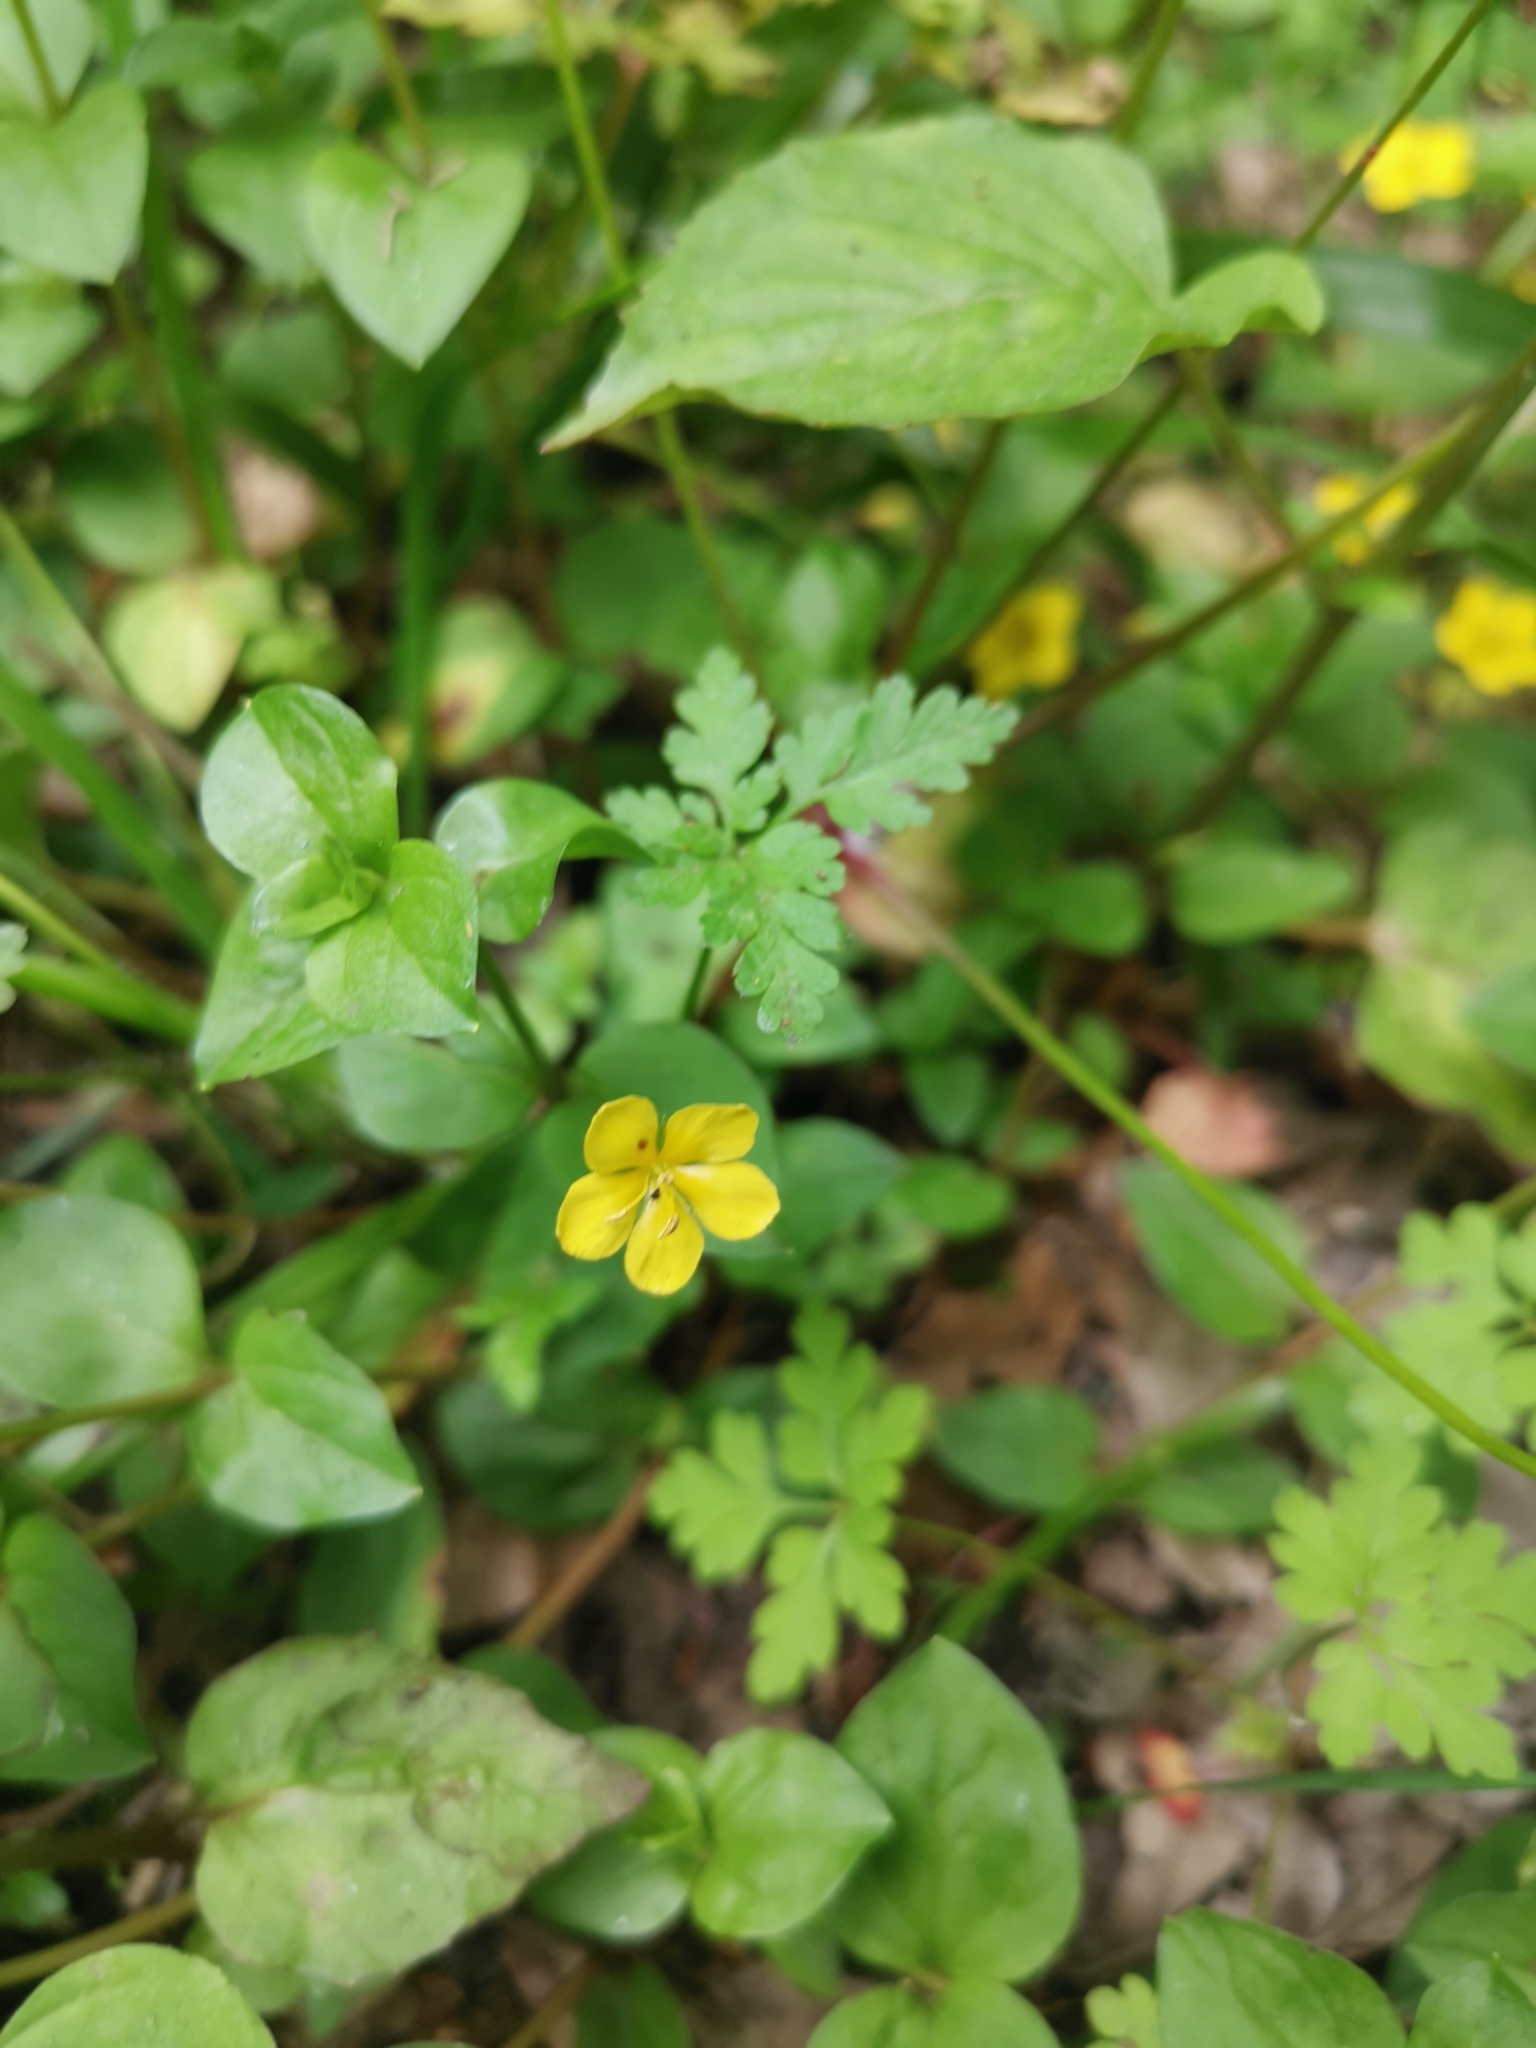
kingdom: Plantae
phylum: Tracheophyta
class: Magnoliopsida
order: Ericales
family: Primulaceae
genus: Lysimachia
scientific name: Lysimachia nemorum
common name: Yellow pimpernel
